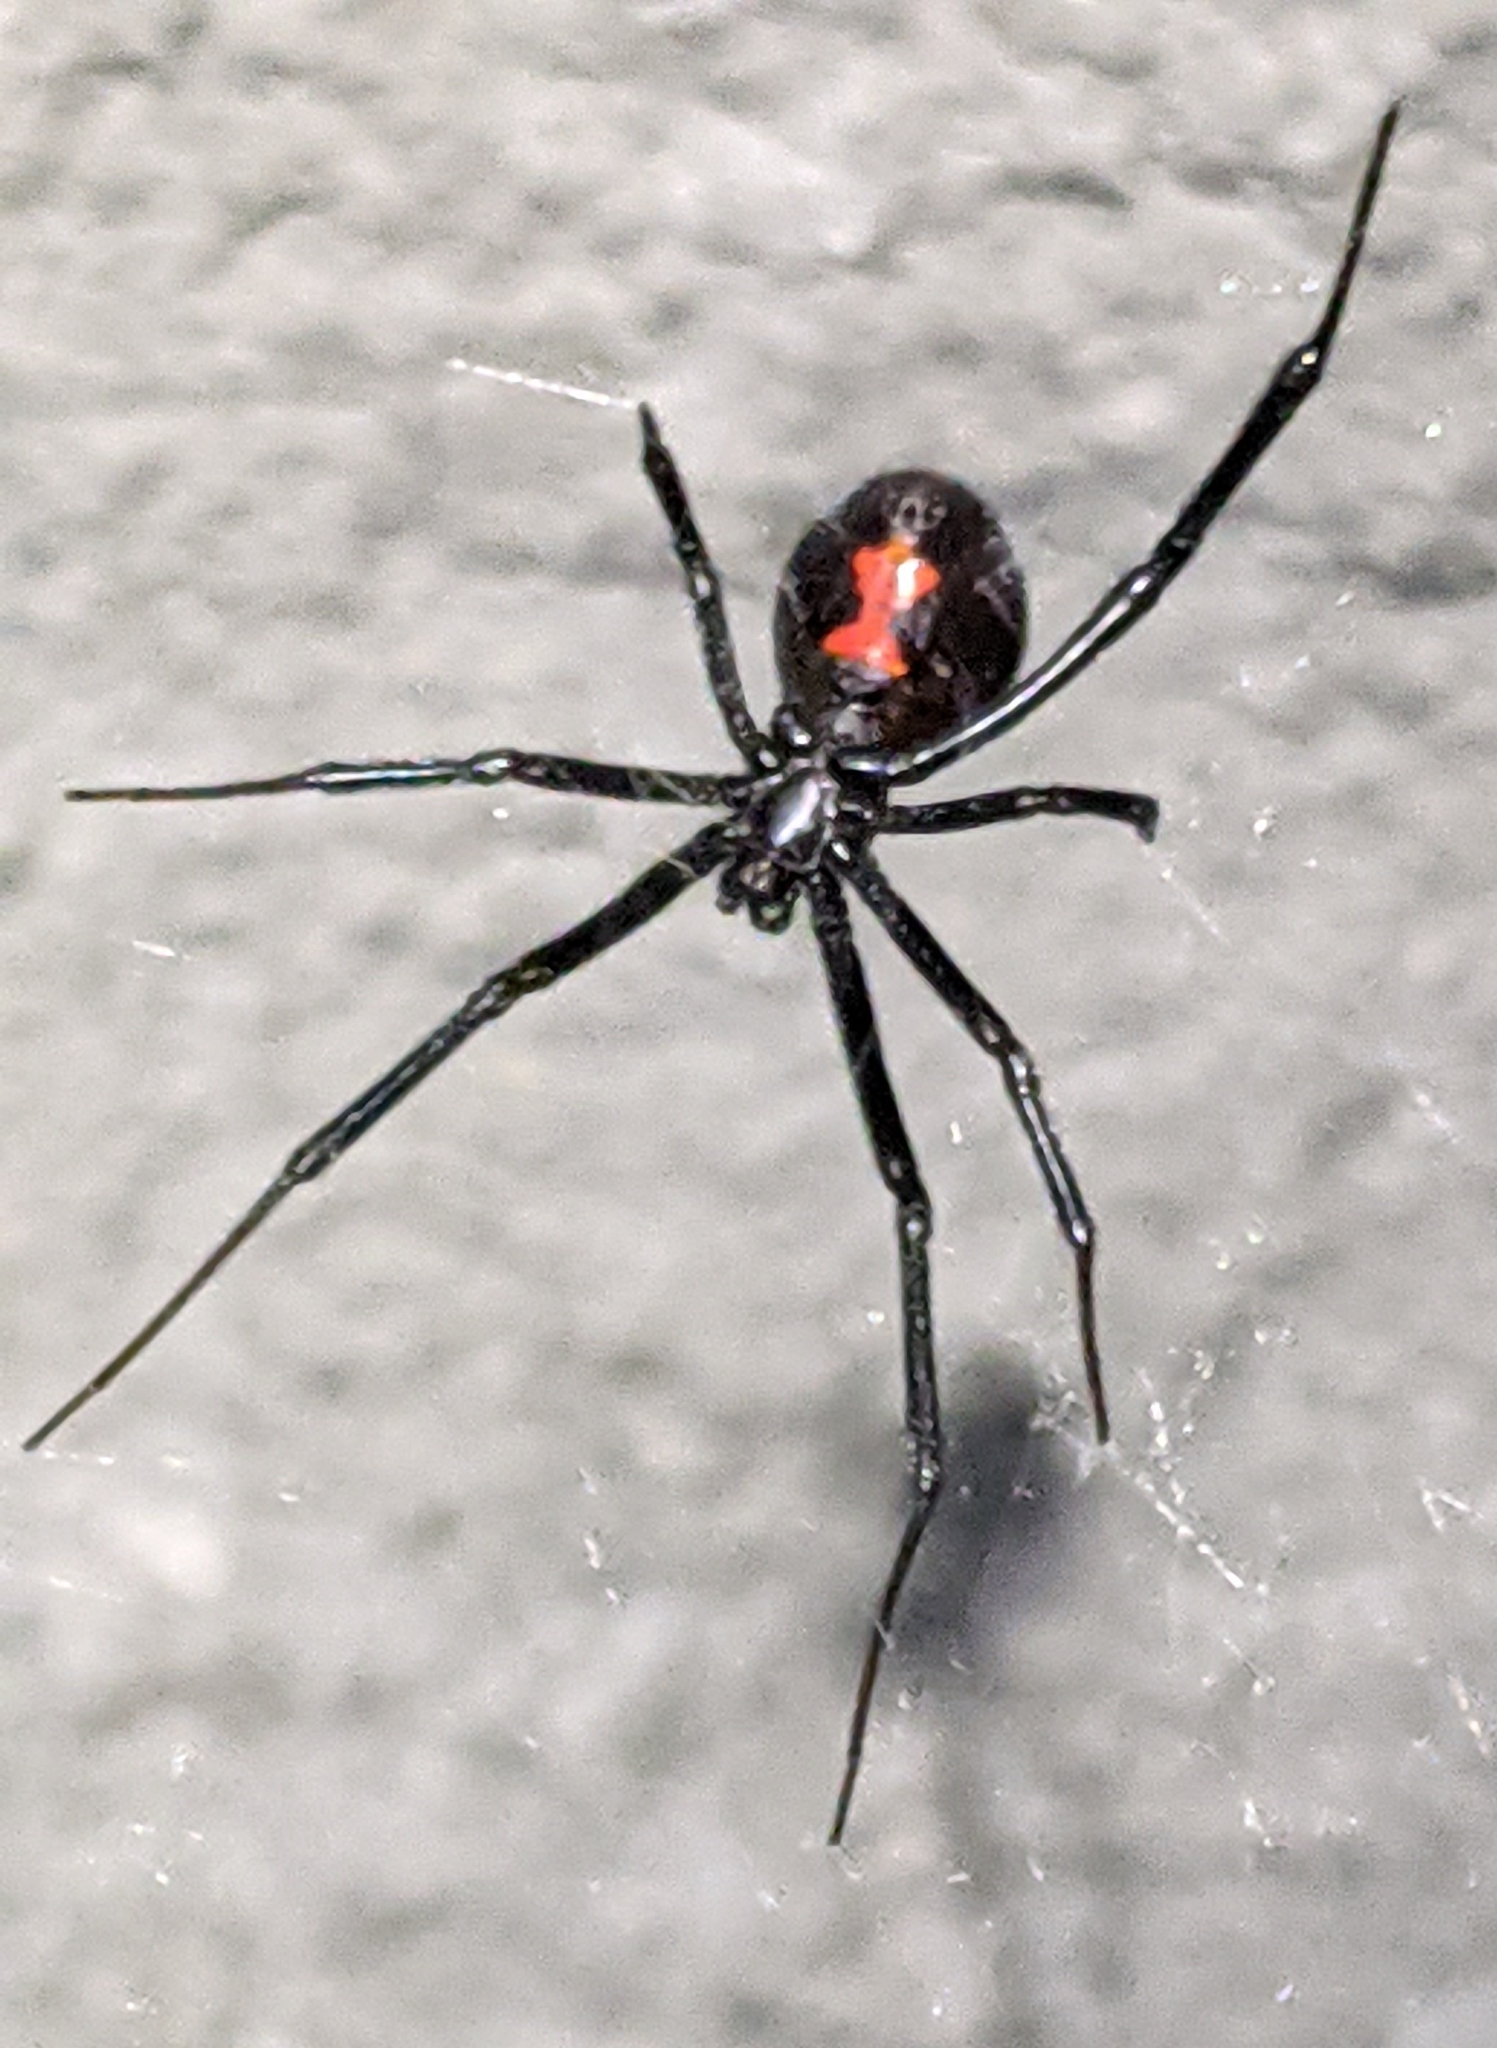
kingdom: Animalia
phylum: Arthropoda
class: Arachnida
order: Araneae
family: Theridiidae
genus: Latrodectus
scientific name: Latrodectus hesperus
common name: Western black widow
